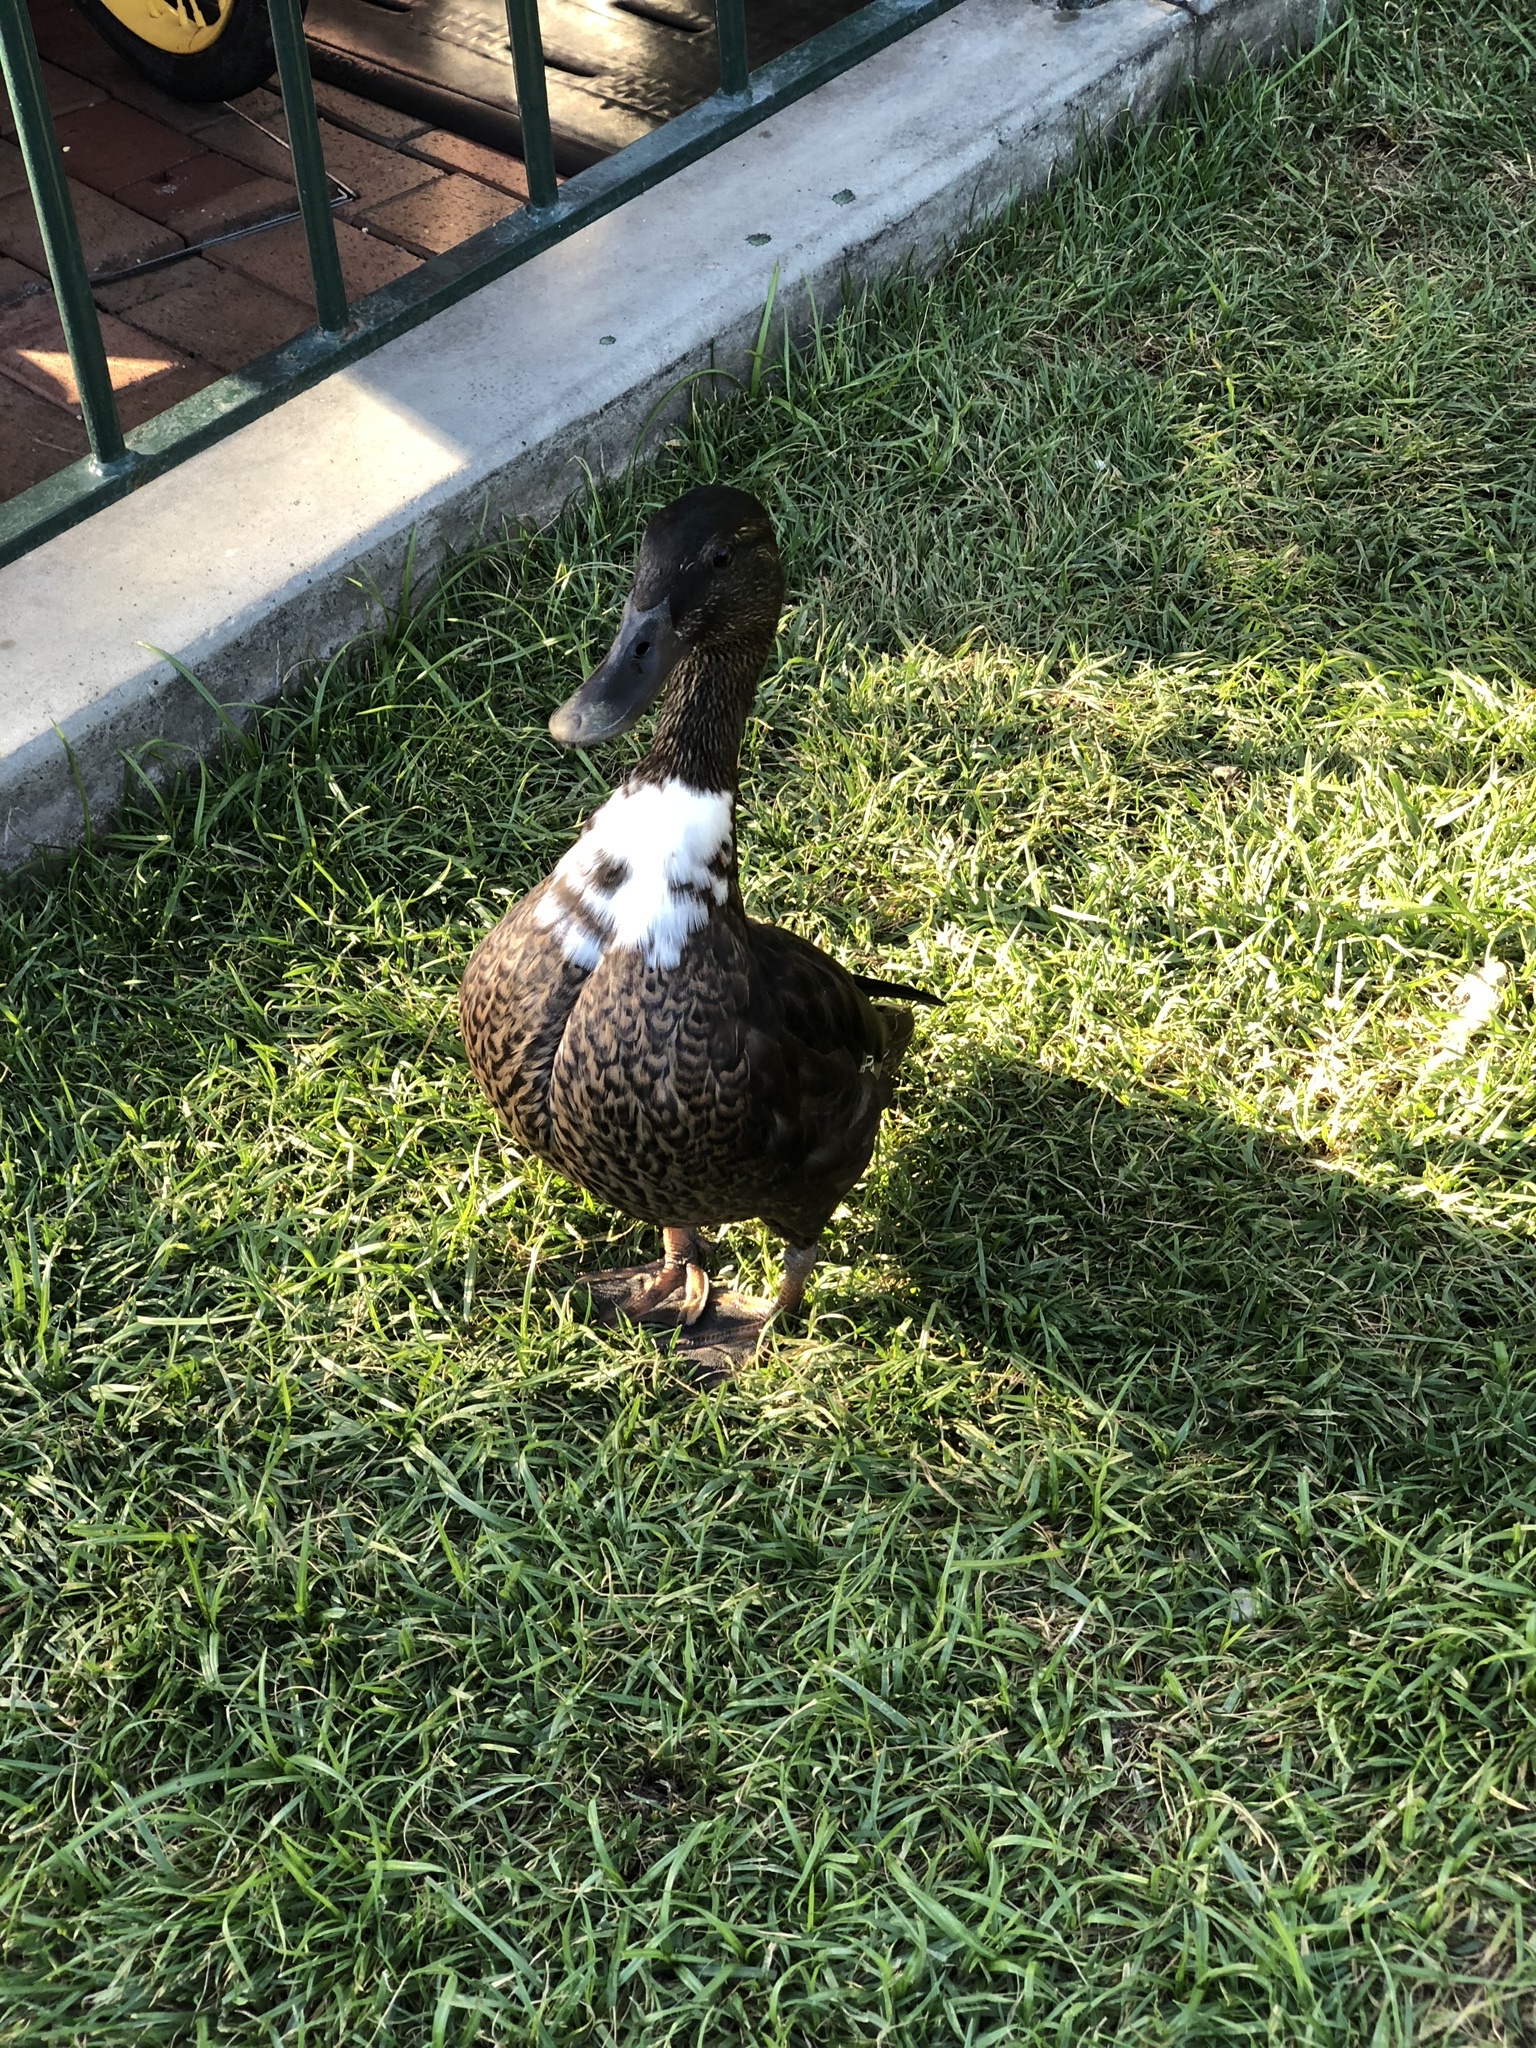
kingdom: Animalia
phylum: Chordata
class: Aves
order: Anseriformes
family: Anatidae
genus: Anas
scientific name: Anas platyrhynchos
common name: Mallard
